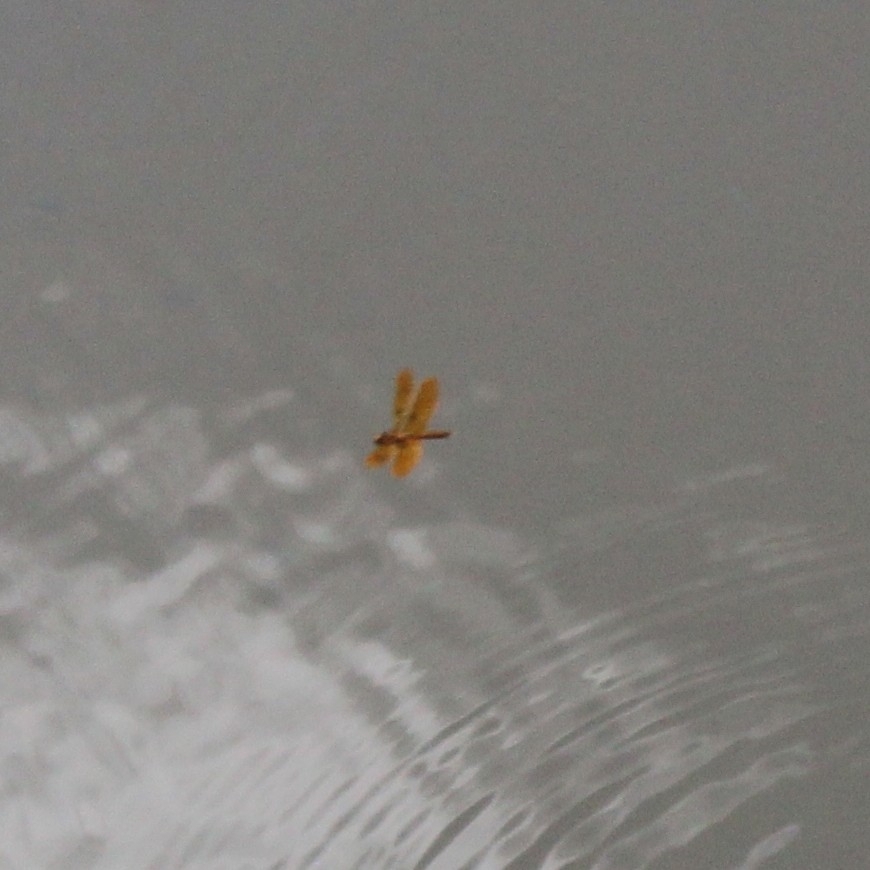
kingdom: Animalia
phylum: Arthropoda
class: Insecta
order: Odonata
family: Libellulidae
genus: Perithemis
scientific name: Perithemis tenera
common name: Eastern amberwing
